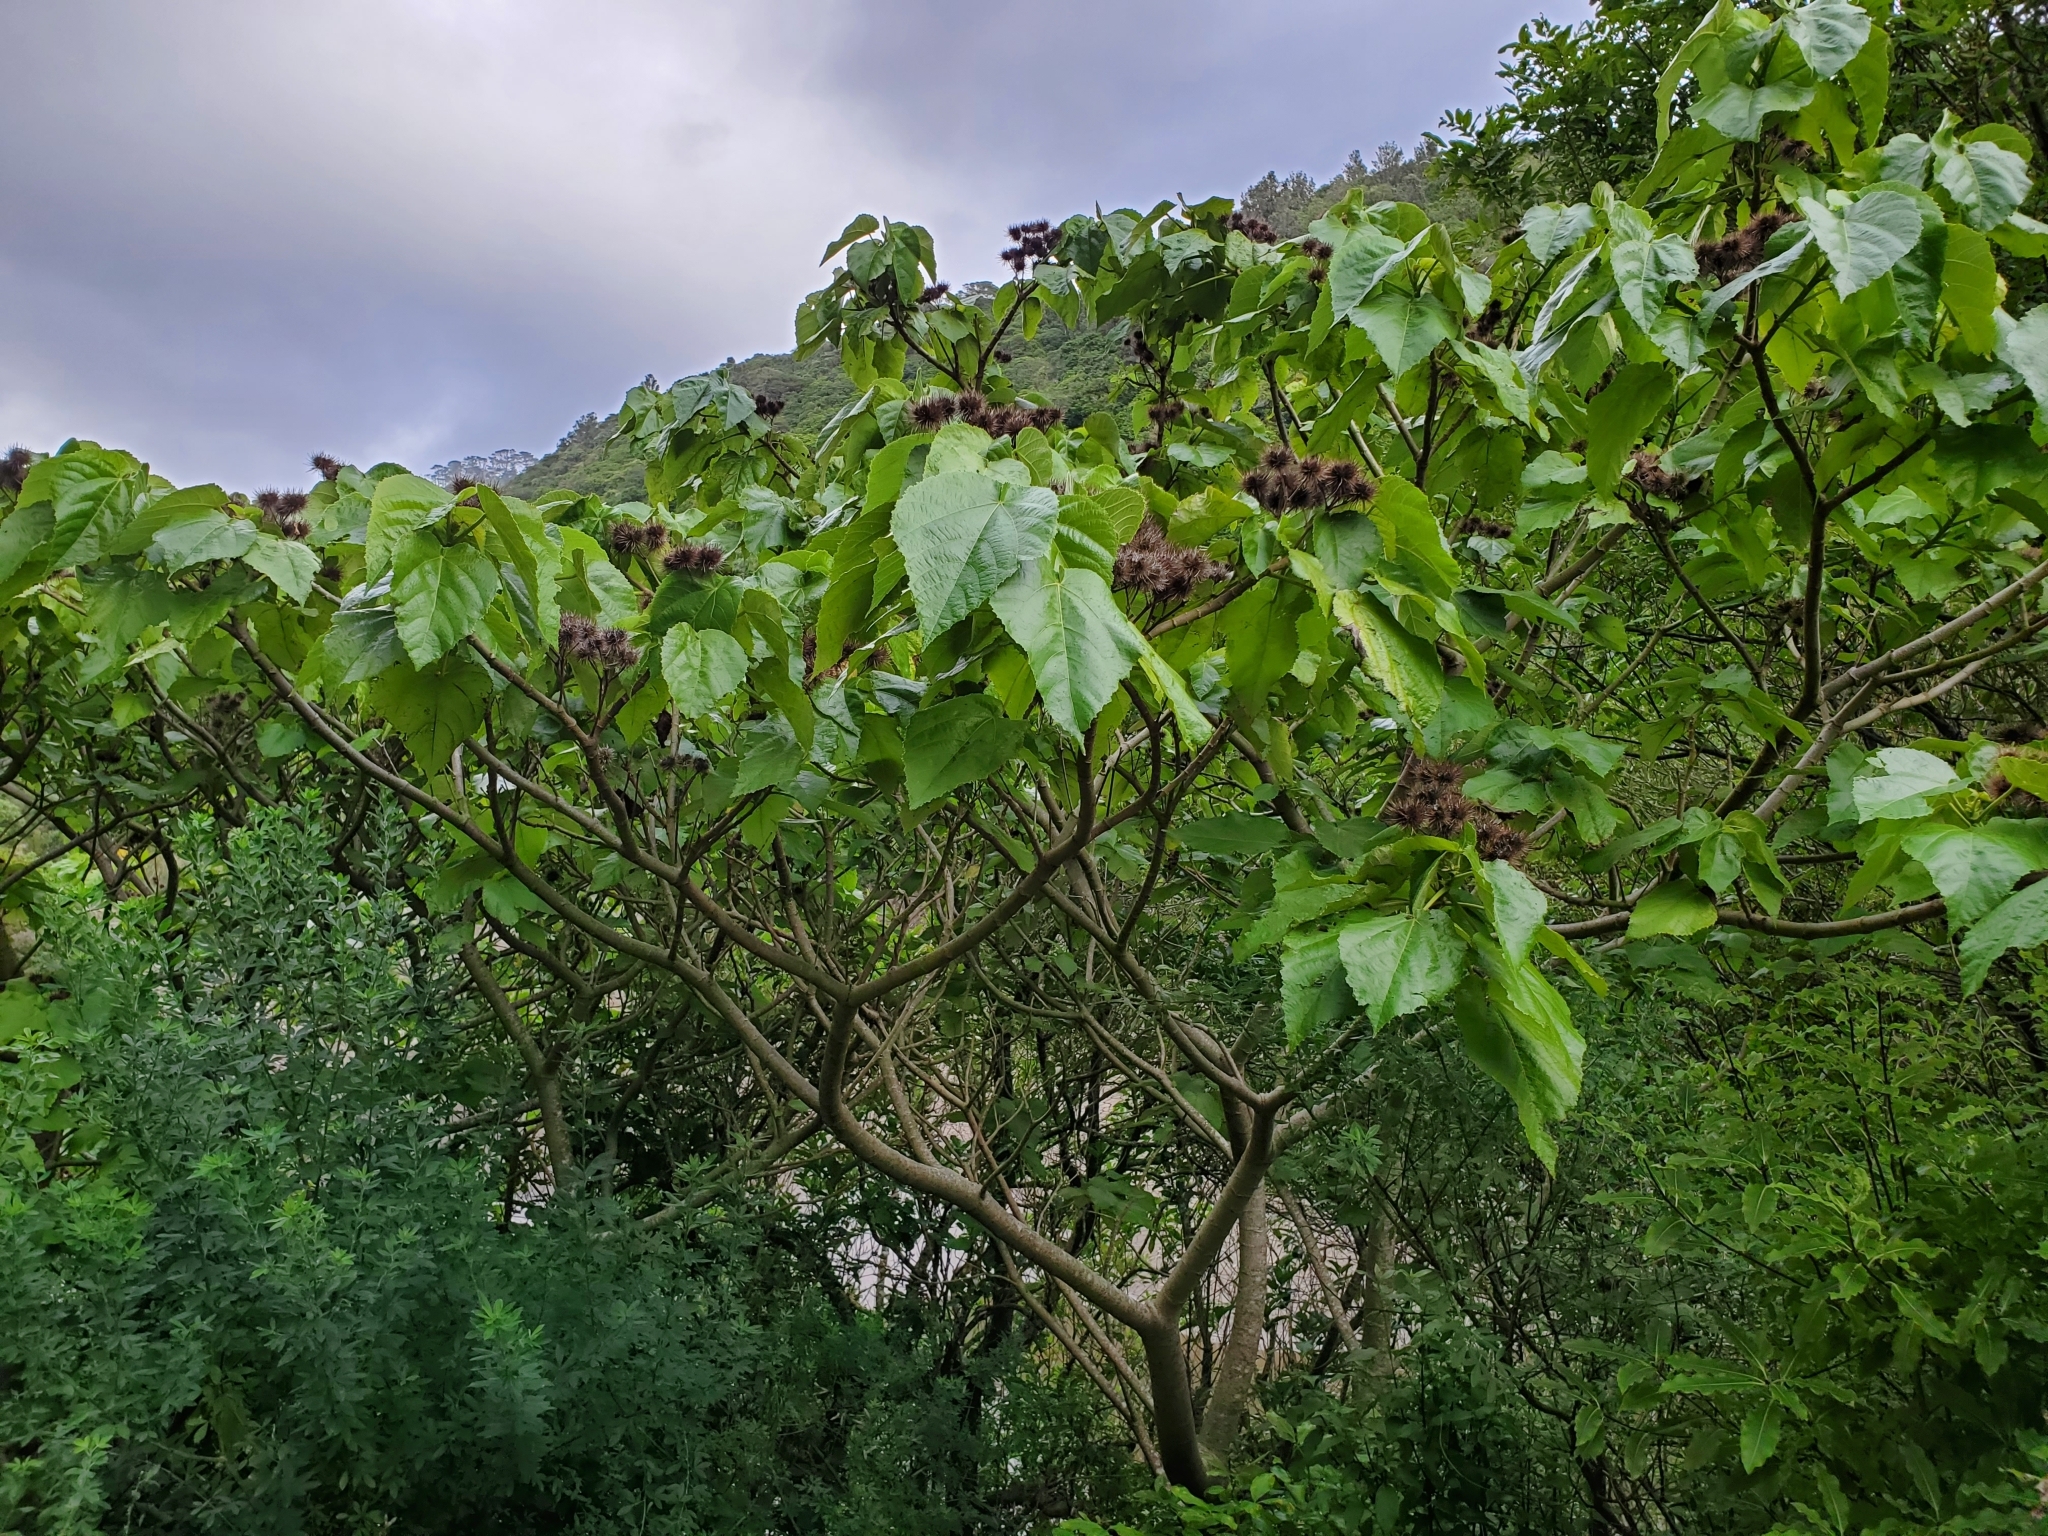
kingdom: Plantae
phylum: Tracheophyta
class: Magnoliopsida
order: Malvales
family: Malvaceae
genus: Entelea
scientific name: Entelea arborescens
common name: New zealand-mulberry
